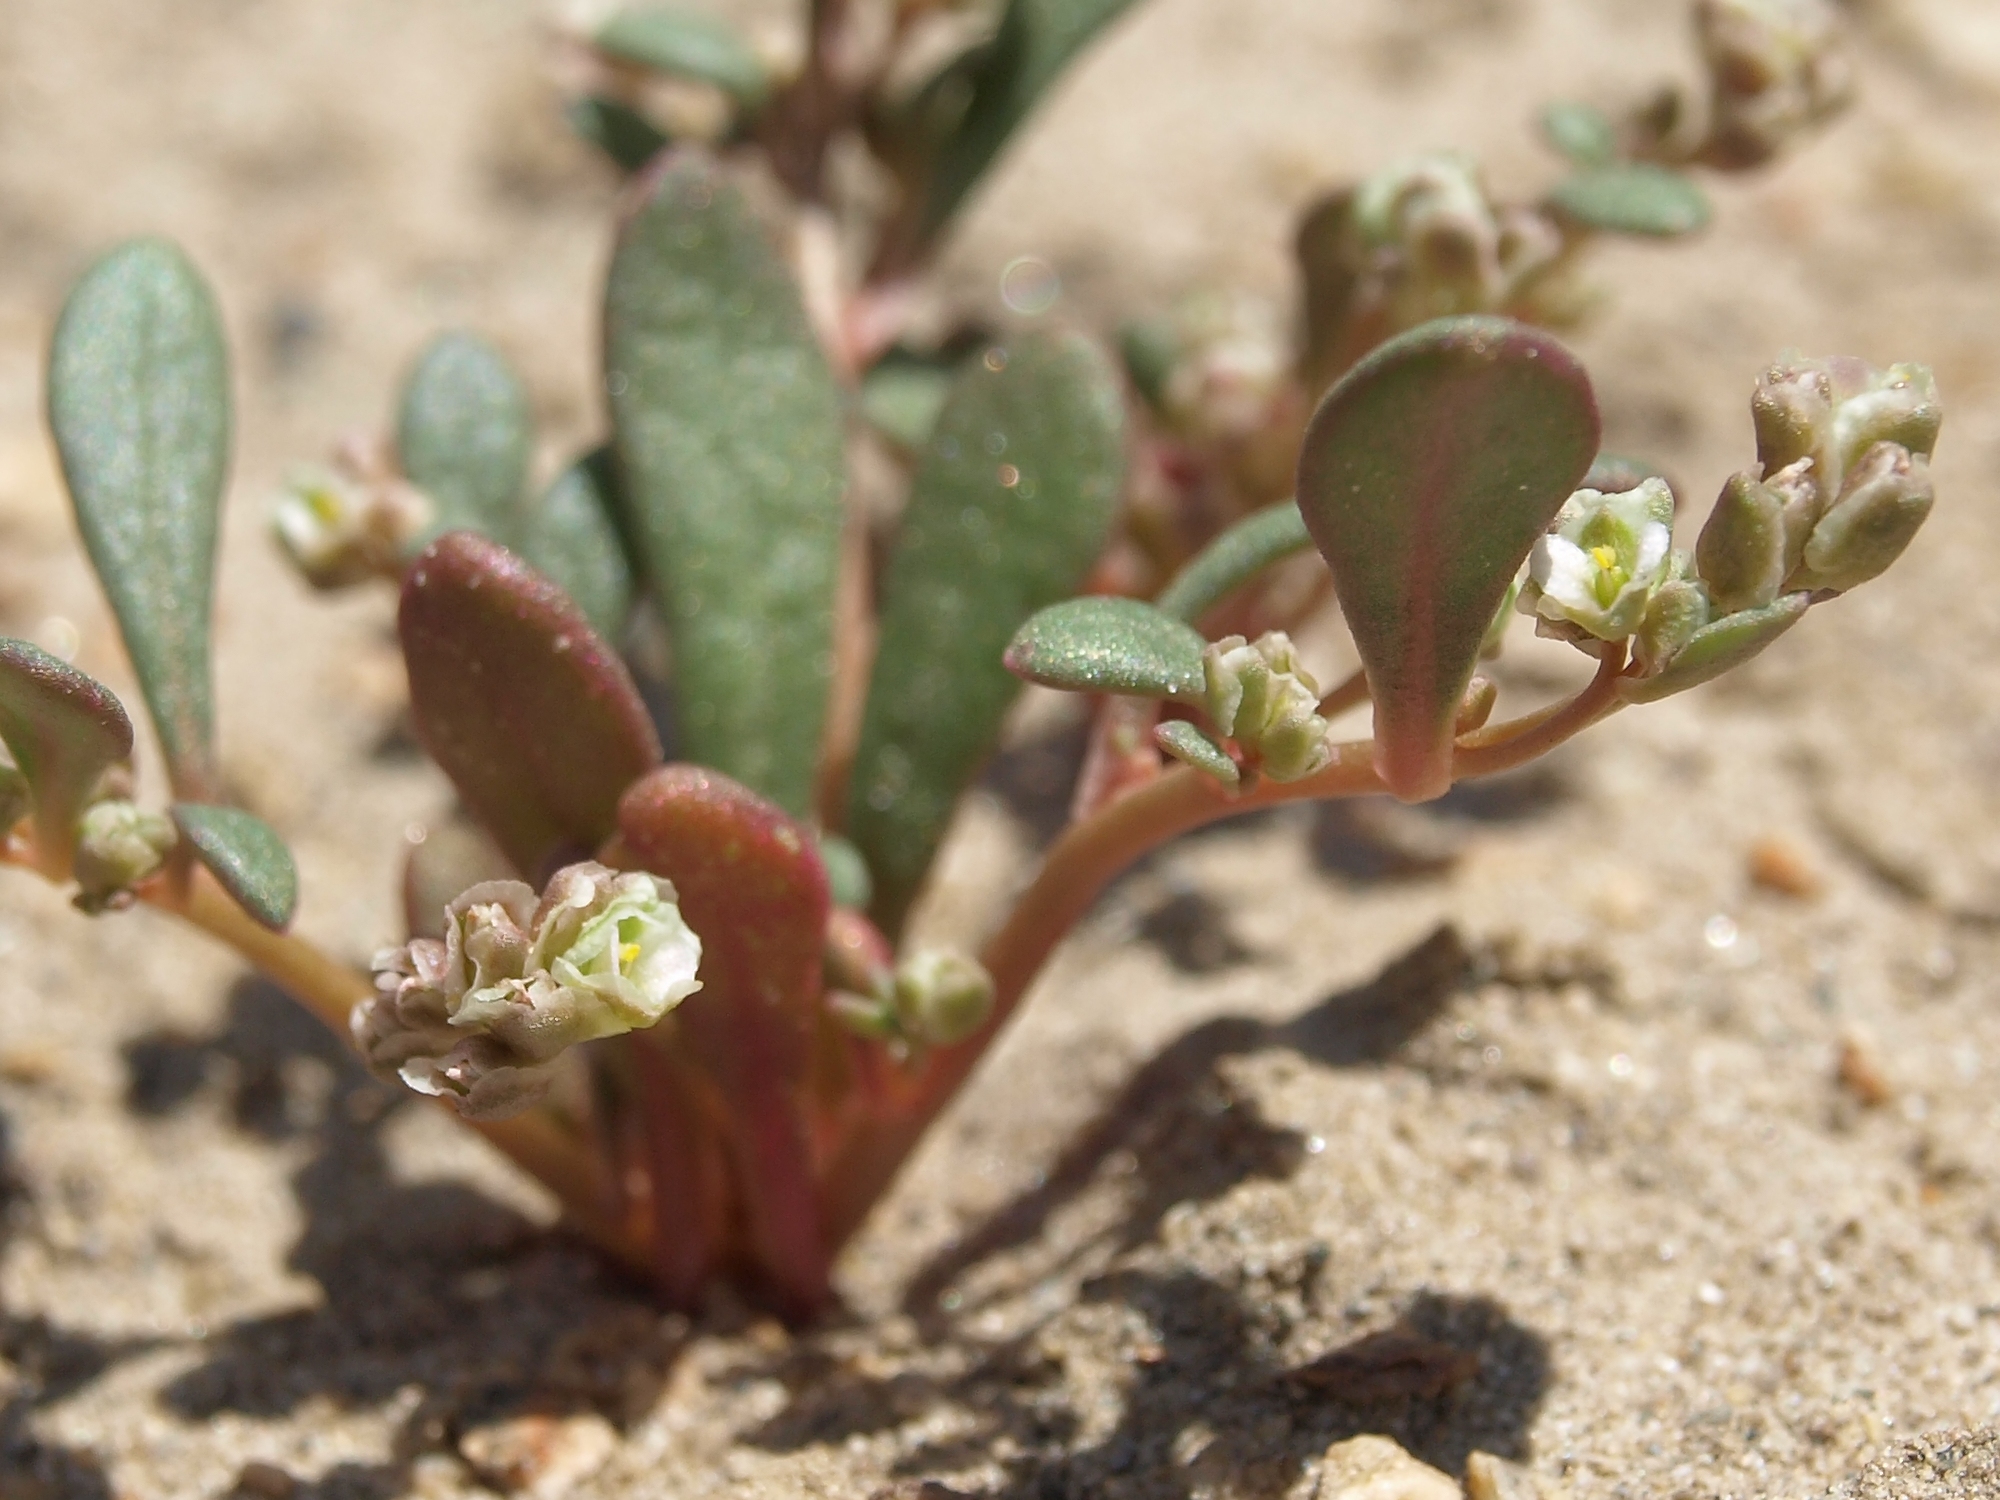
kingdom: Plantae
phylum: Tracheophyta
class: Magnoliopsida
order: Caryophyllales
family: Montiaceae
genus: Calyptridium
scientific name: Calyptridium roseum
